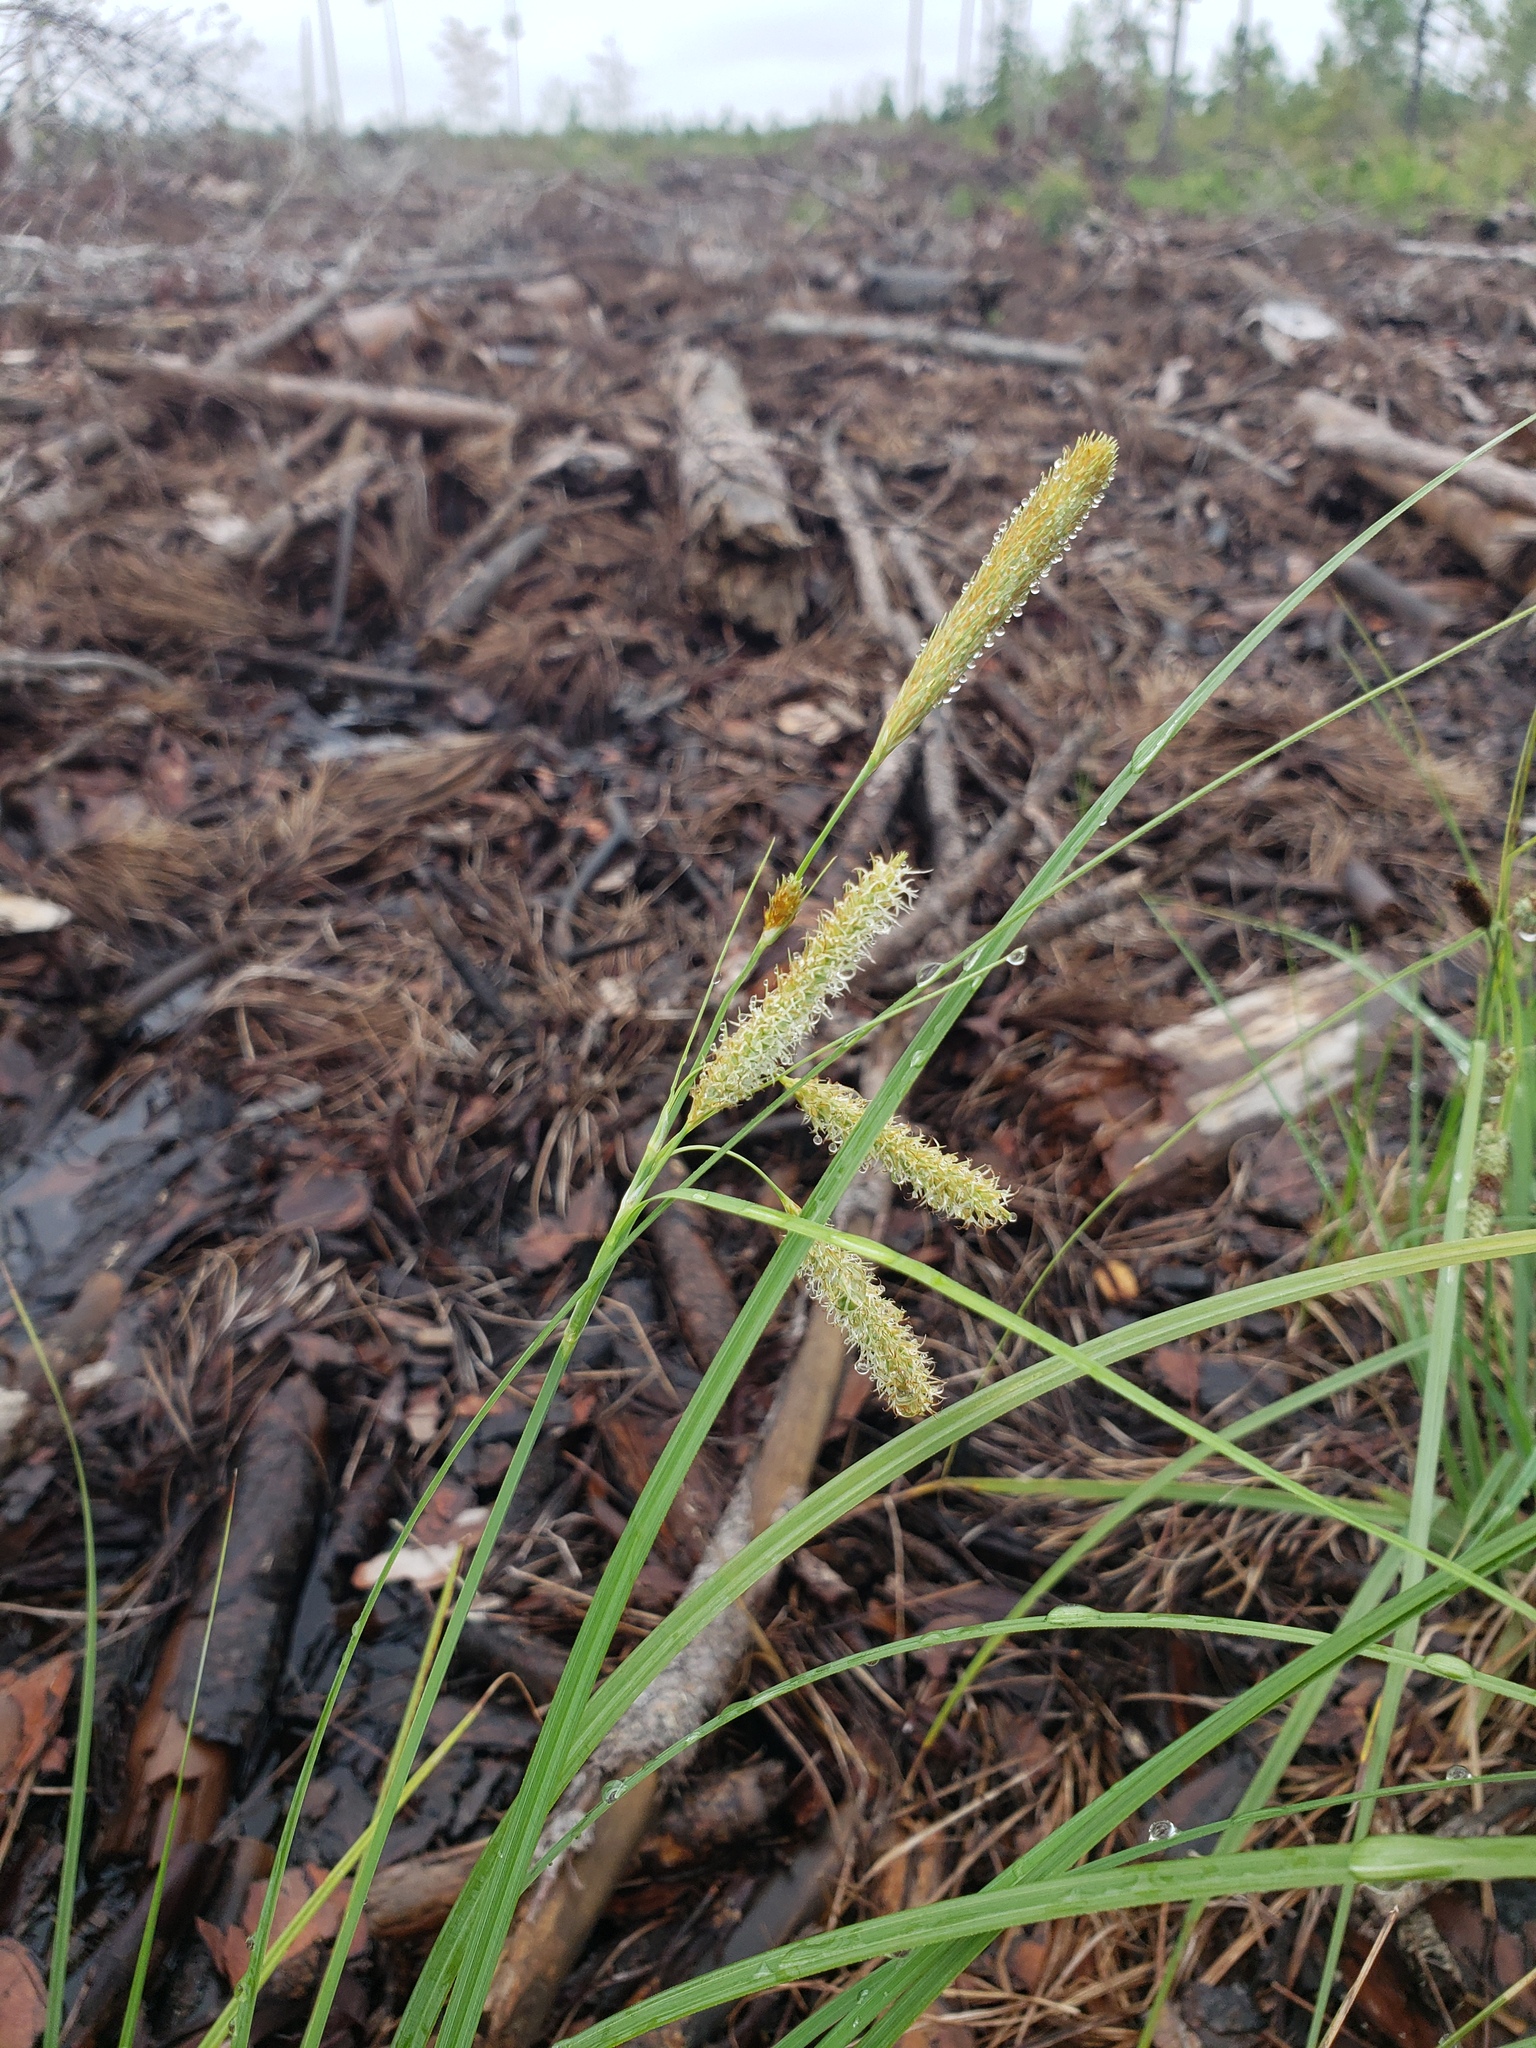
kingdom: Plantae
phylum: Tracheophyta
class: Liliopsida
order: Poales
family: Cyperaceae
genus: Carex
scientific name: Carex glaucescens
